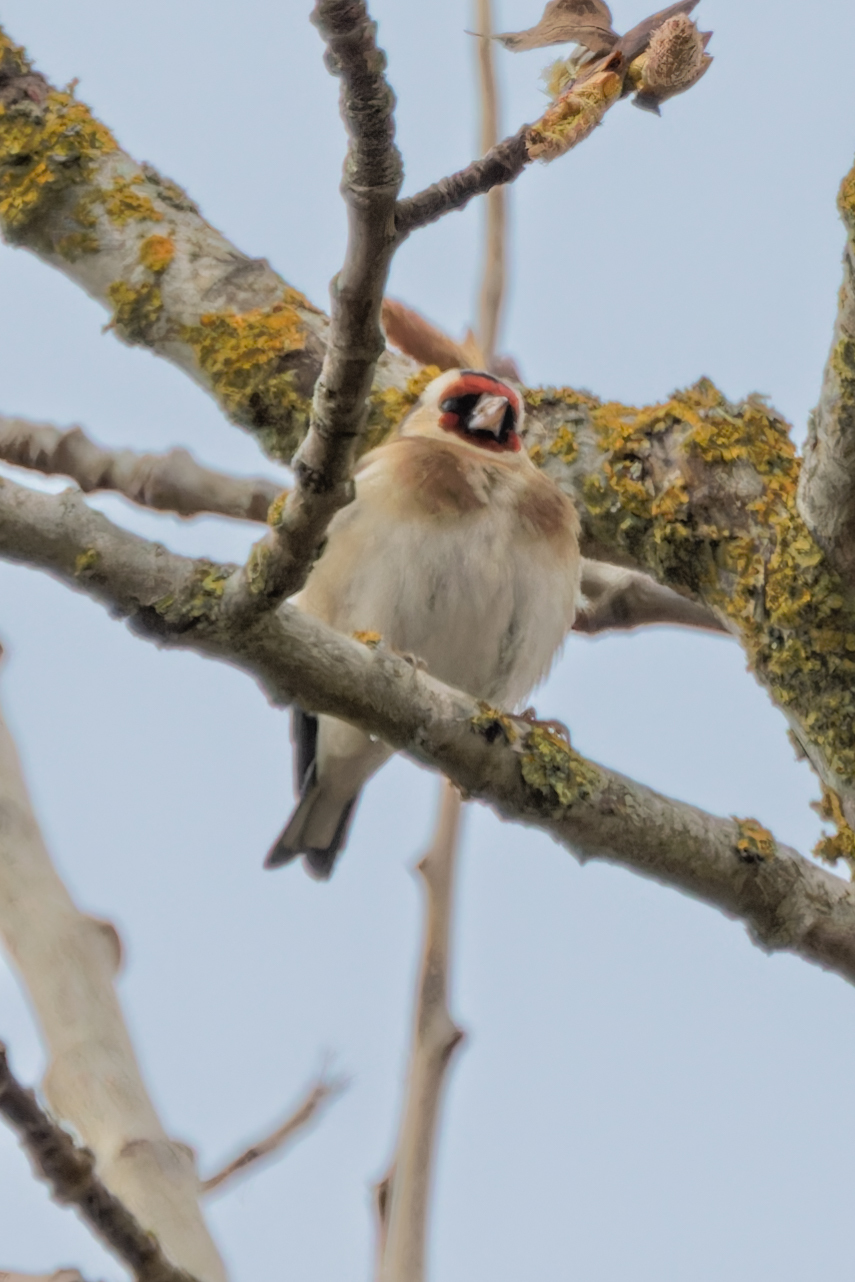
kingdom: Animalia
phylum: Chordata
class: Aves
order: Passeriformes
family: Fringillidae
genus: Carduelis
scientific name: Carduelis carduelis
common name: European goldfinch
